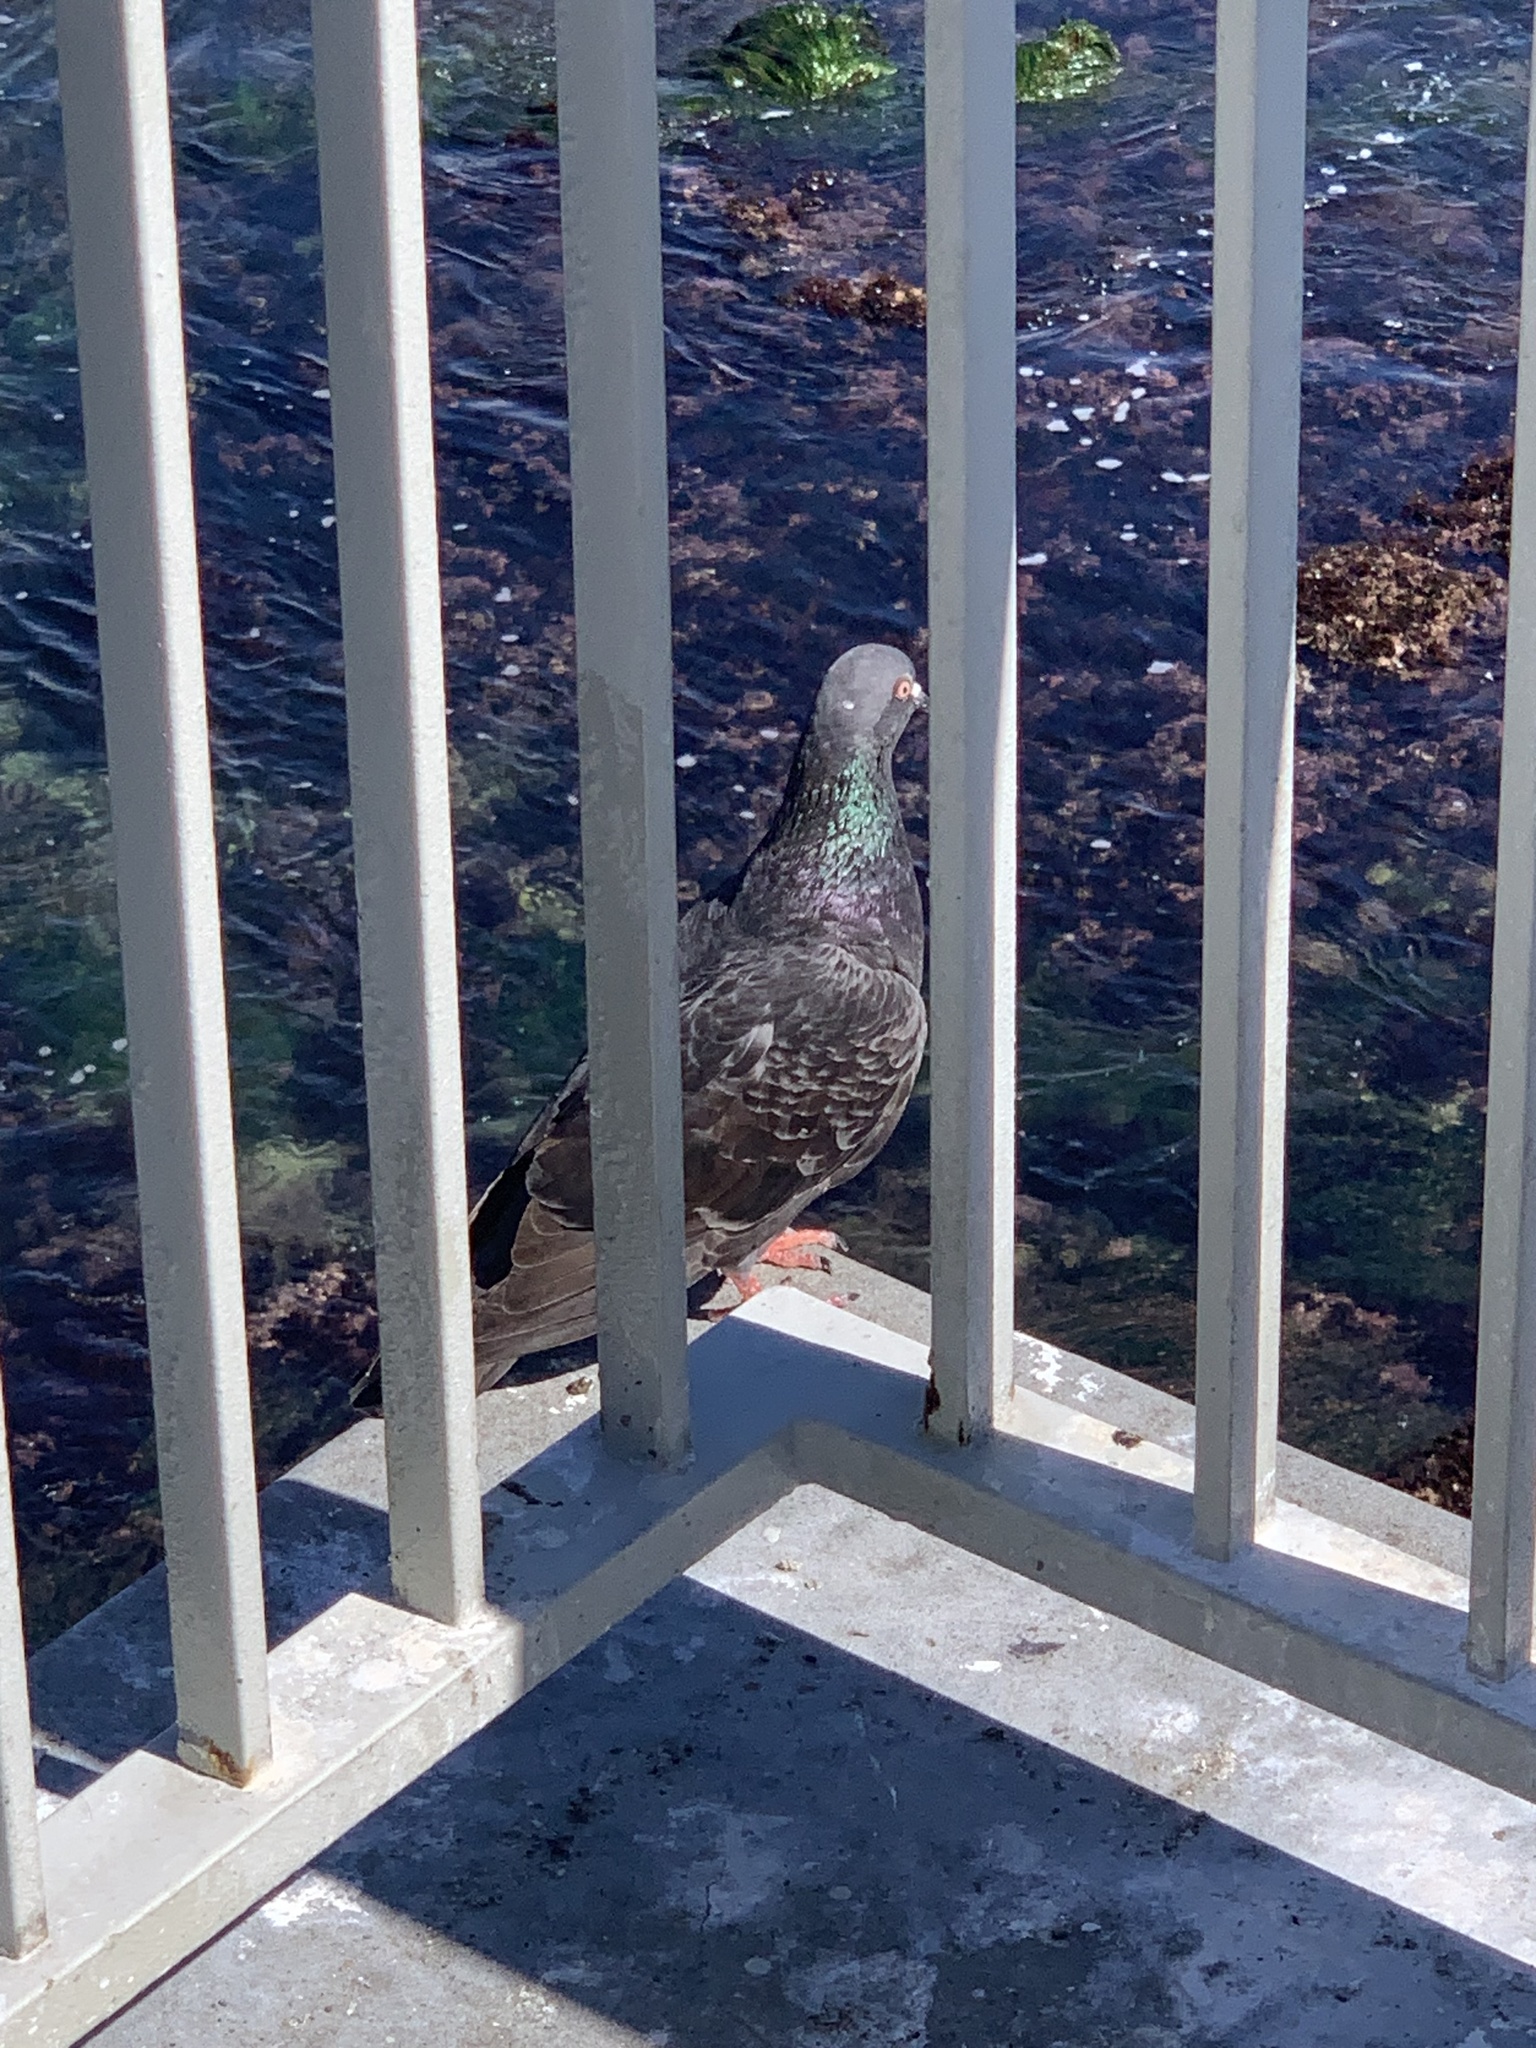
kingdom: Animalia
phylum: Chordata
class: Aves
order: Columbiformes
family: Columbidae
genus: Columba
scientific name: Columba livia
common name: Rock pigeon
